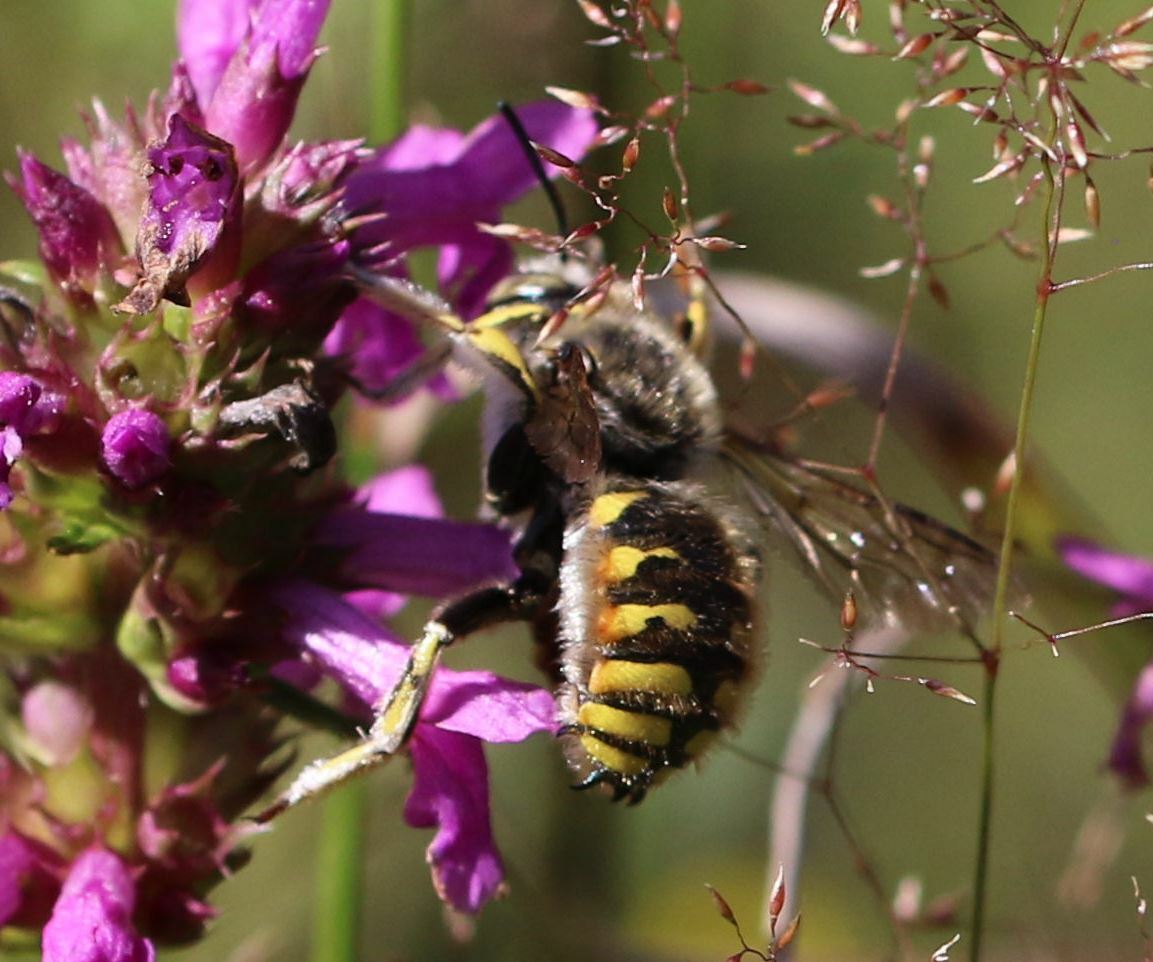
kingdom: Animalia
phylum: Arthropoda
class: Insecta
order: Hymenoptera
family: Megachilidae
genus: Anthidium
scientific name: Anthidium manicatum
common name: Wool carder bee
